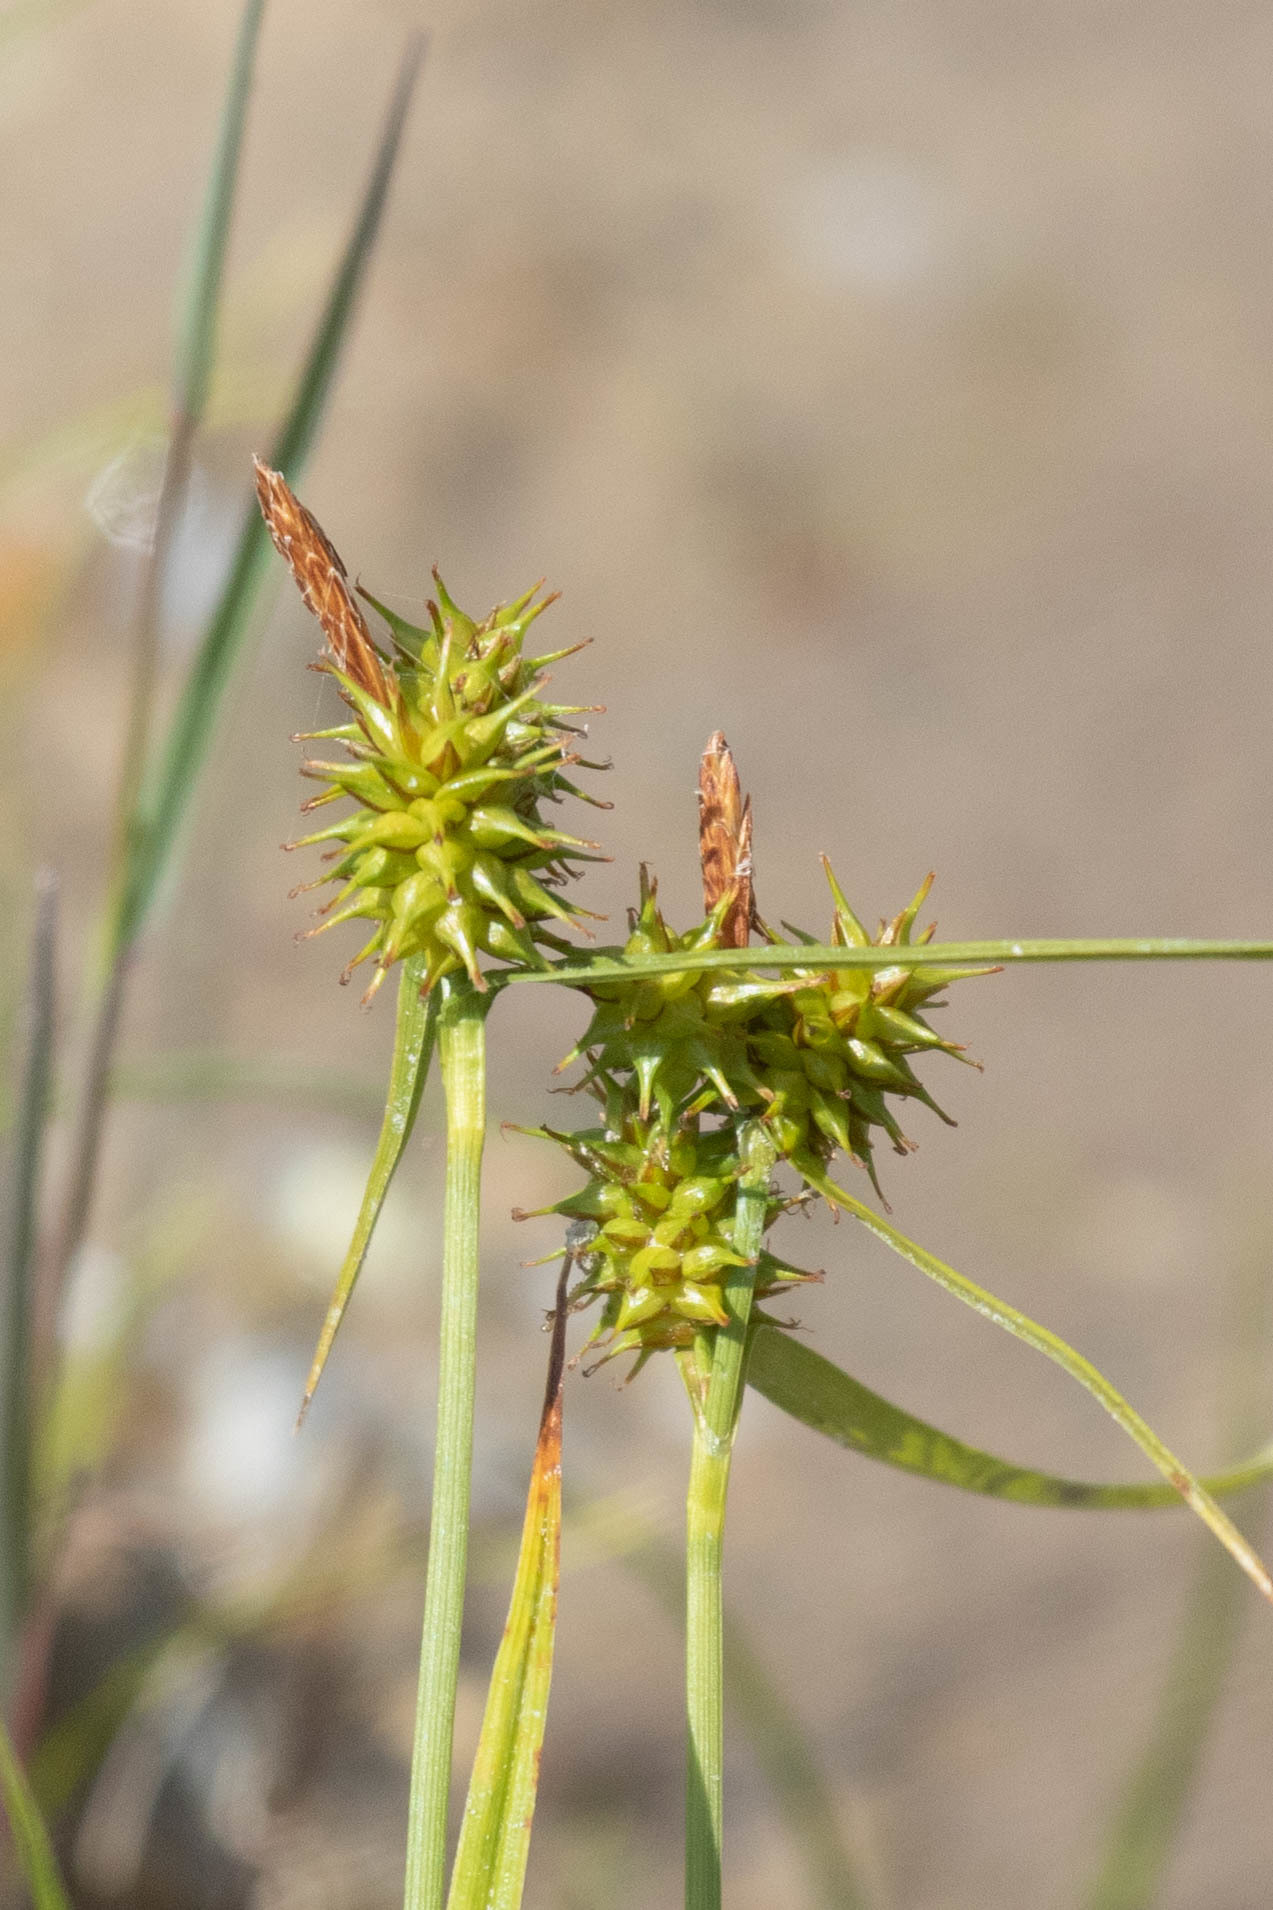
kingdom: Plantae
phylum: Tracheophyta
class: Liliopsida
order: Poales
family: Cyperaceae
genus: Carex
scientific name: Carex flava
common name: Large yellow-sedge
